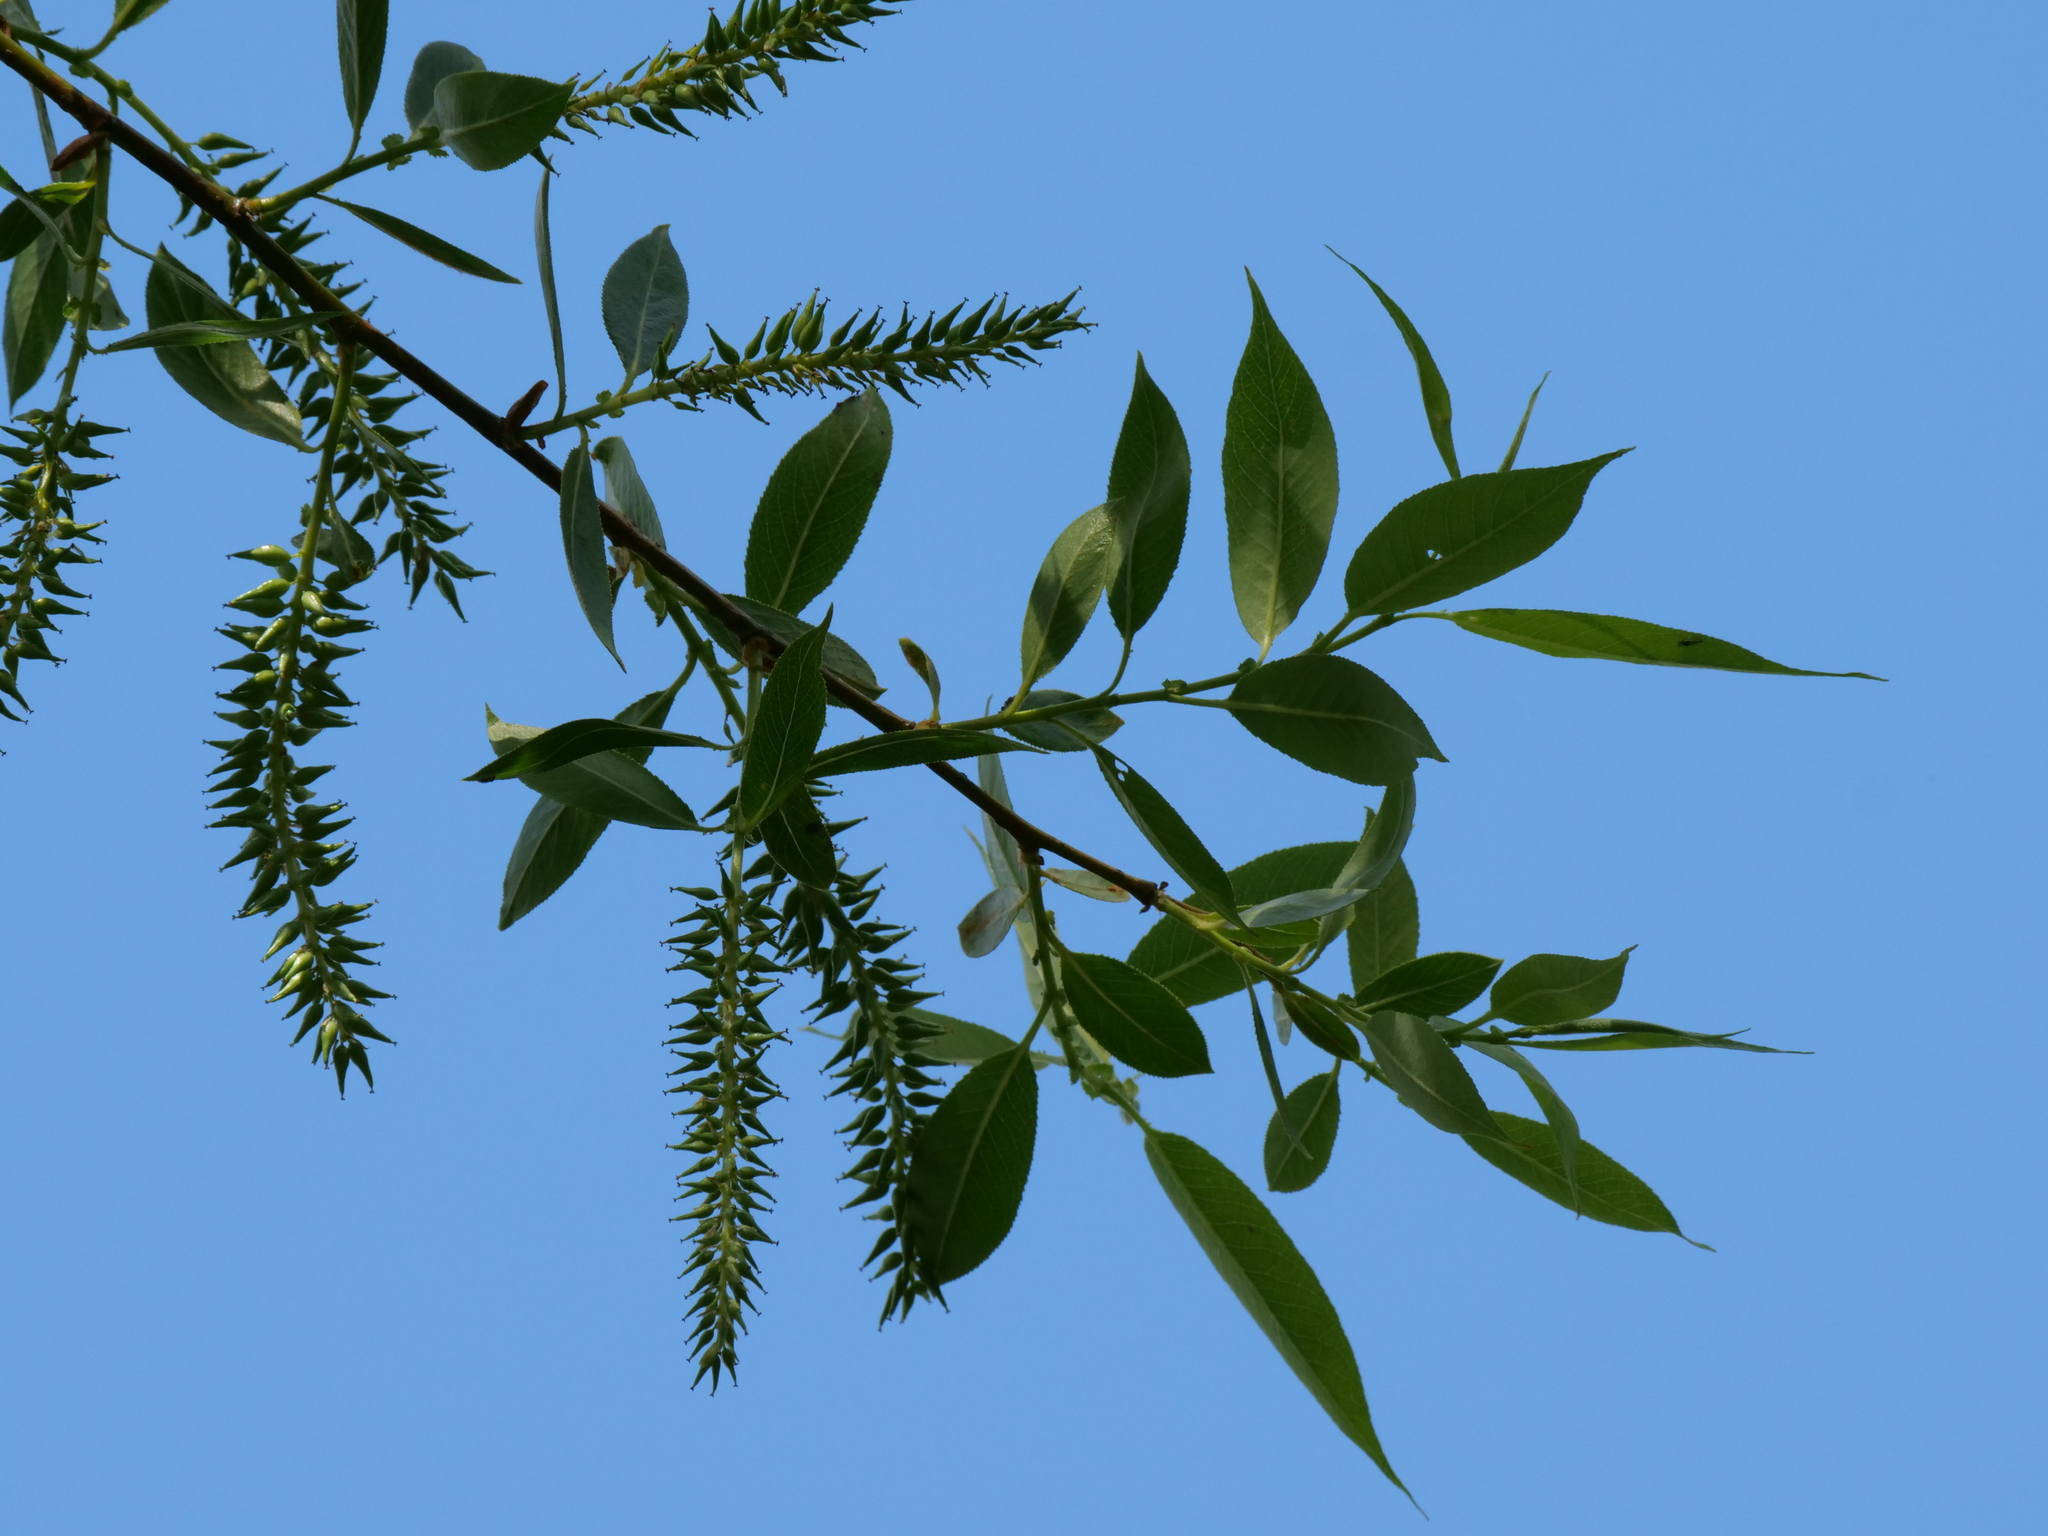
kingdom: Plantae
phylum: Tracheophyta
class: Magnoliopsida
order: Malpighiales
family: Salicaceae
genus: Salix
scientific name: Salix lucida
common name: Shining willow
